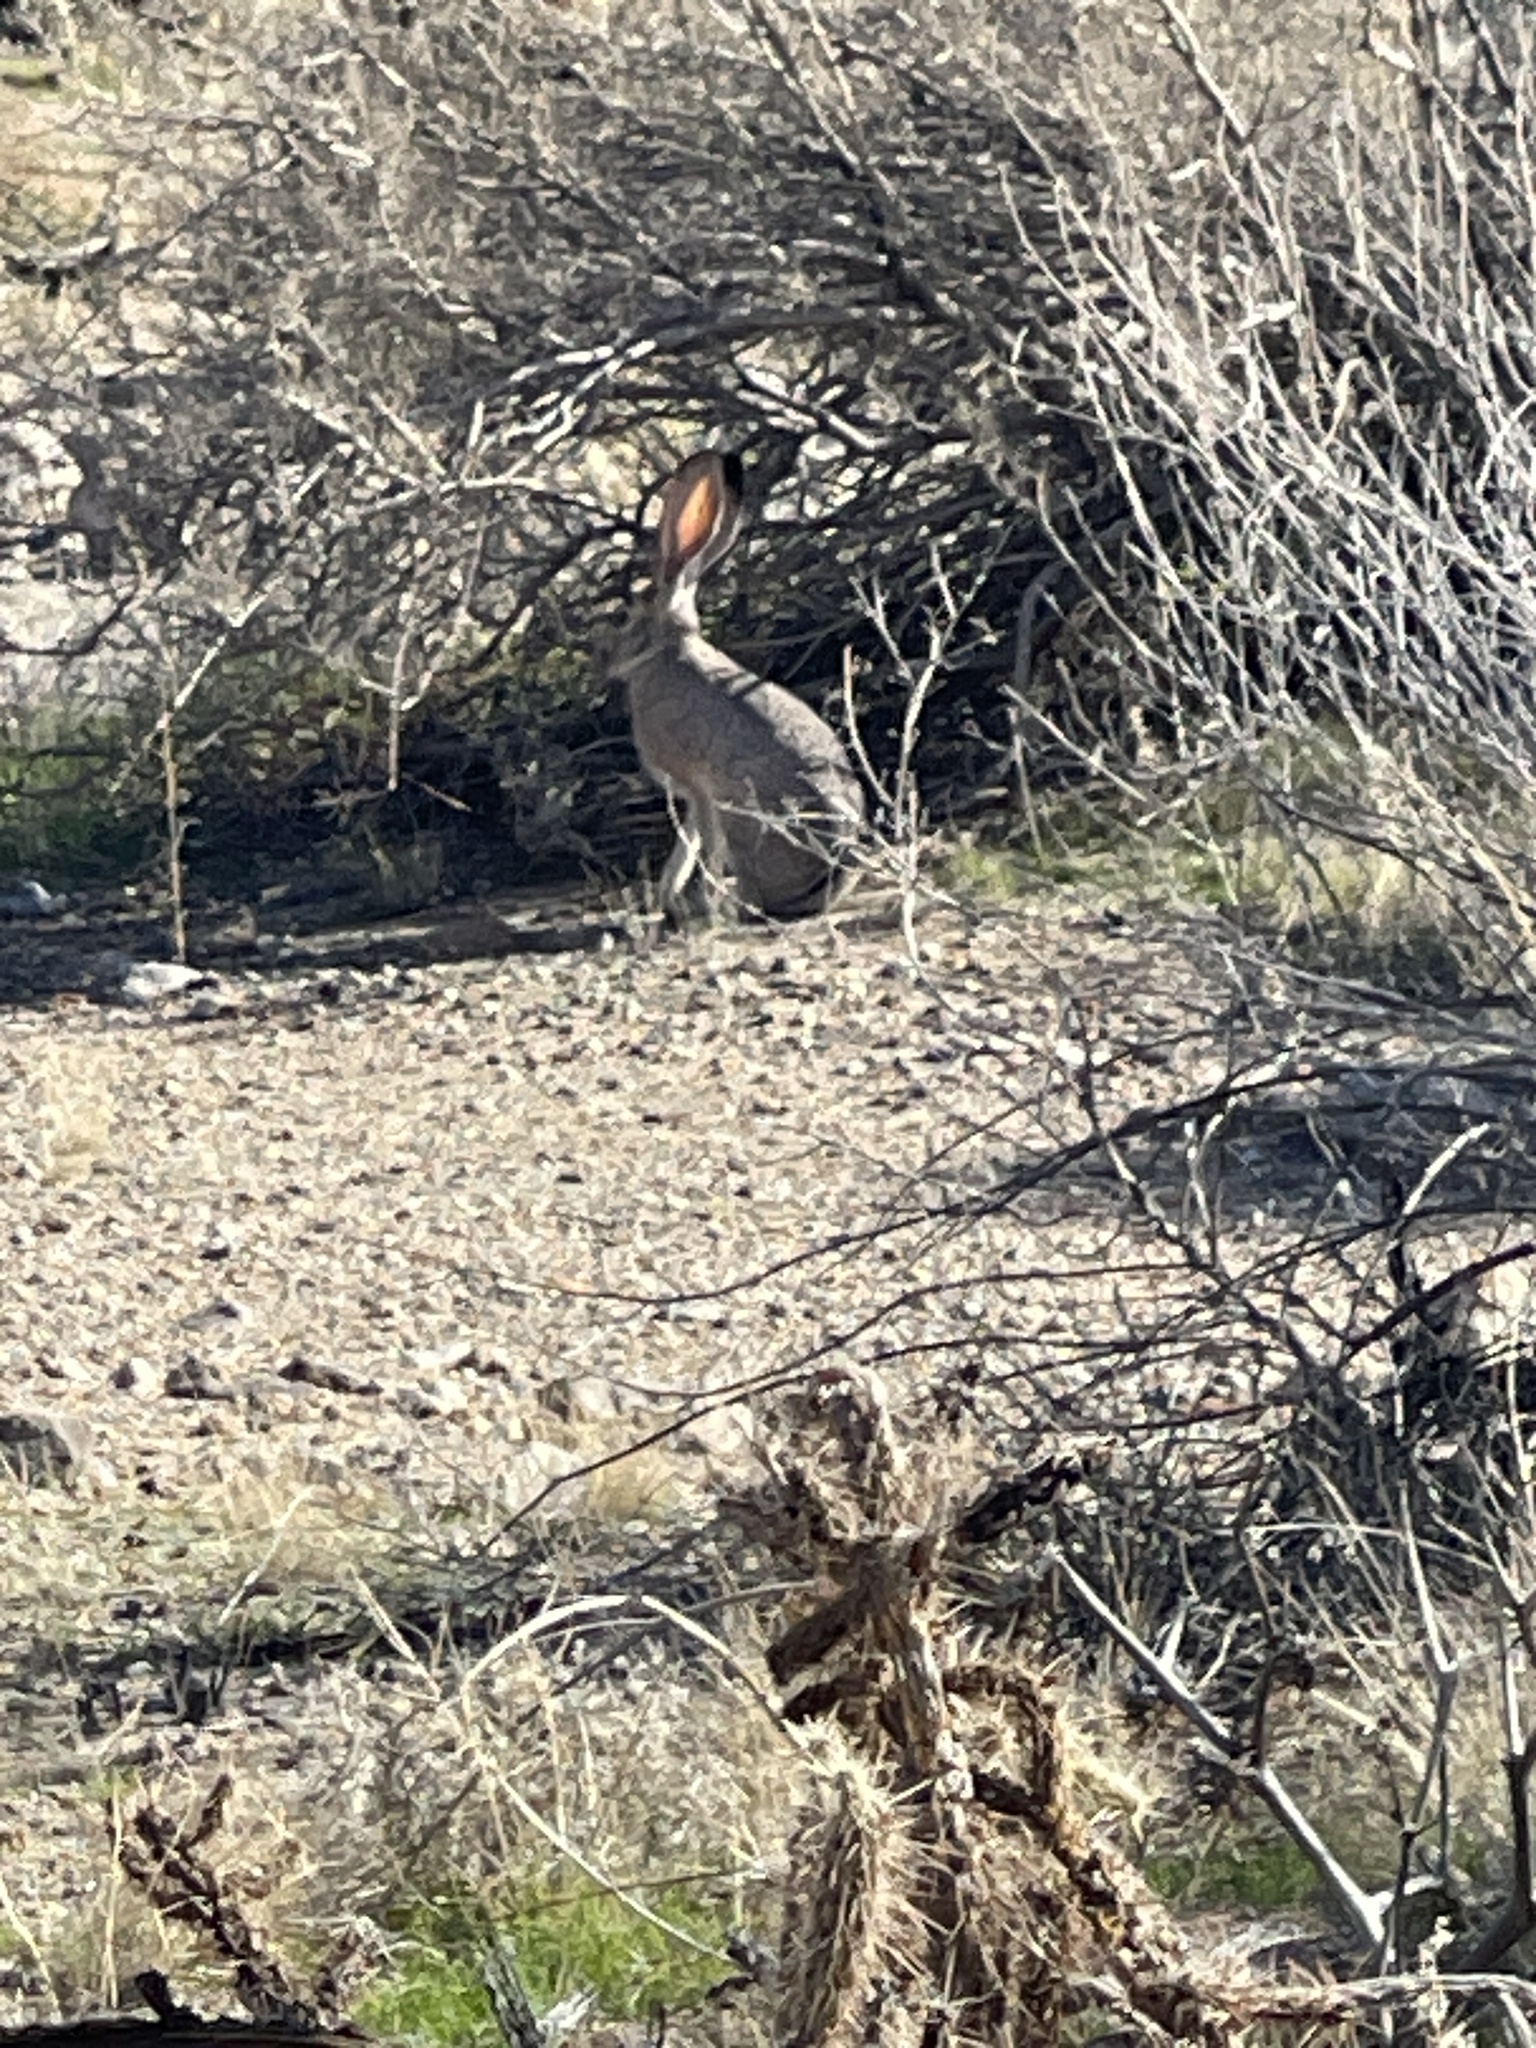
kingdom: Animalia
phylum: Chordata
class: Mammalia
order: Lagomorpha
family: Leporidae
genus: Lepus
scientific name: Lepus californicus
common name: Black-tailed jackrabbit
